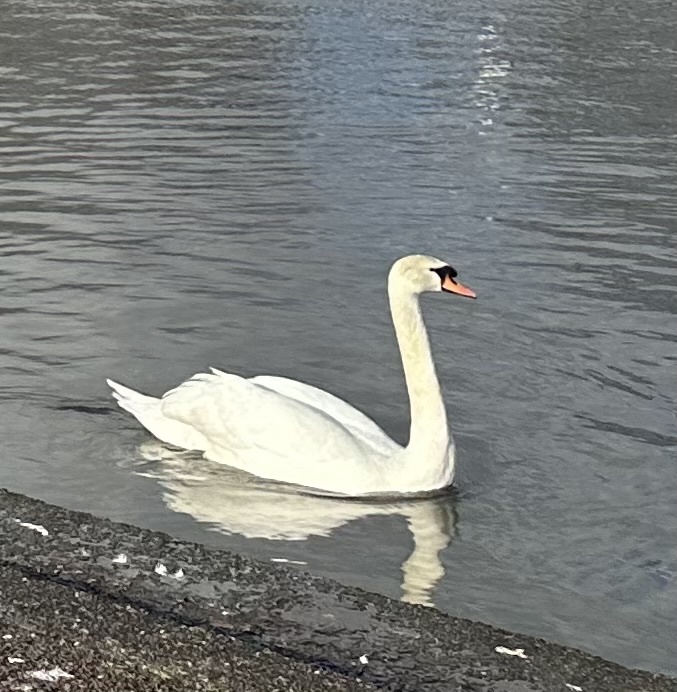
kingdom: Animalia
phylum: Chordata
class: Aves
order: Anseriformes
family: Anatidae
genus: Cygnus
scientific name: Cygnus olor
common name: Mute swan
